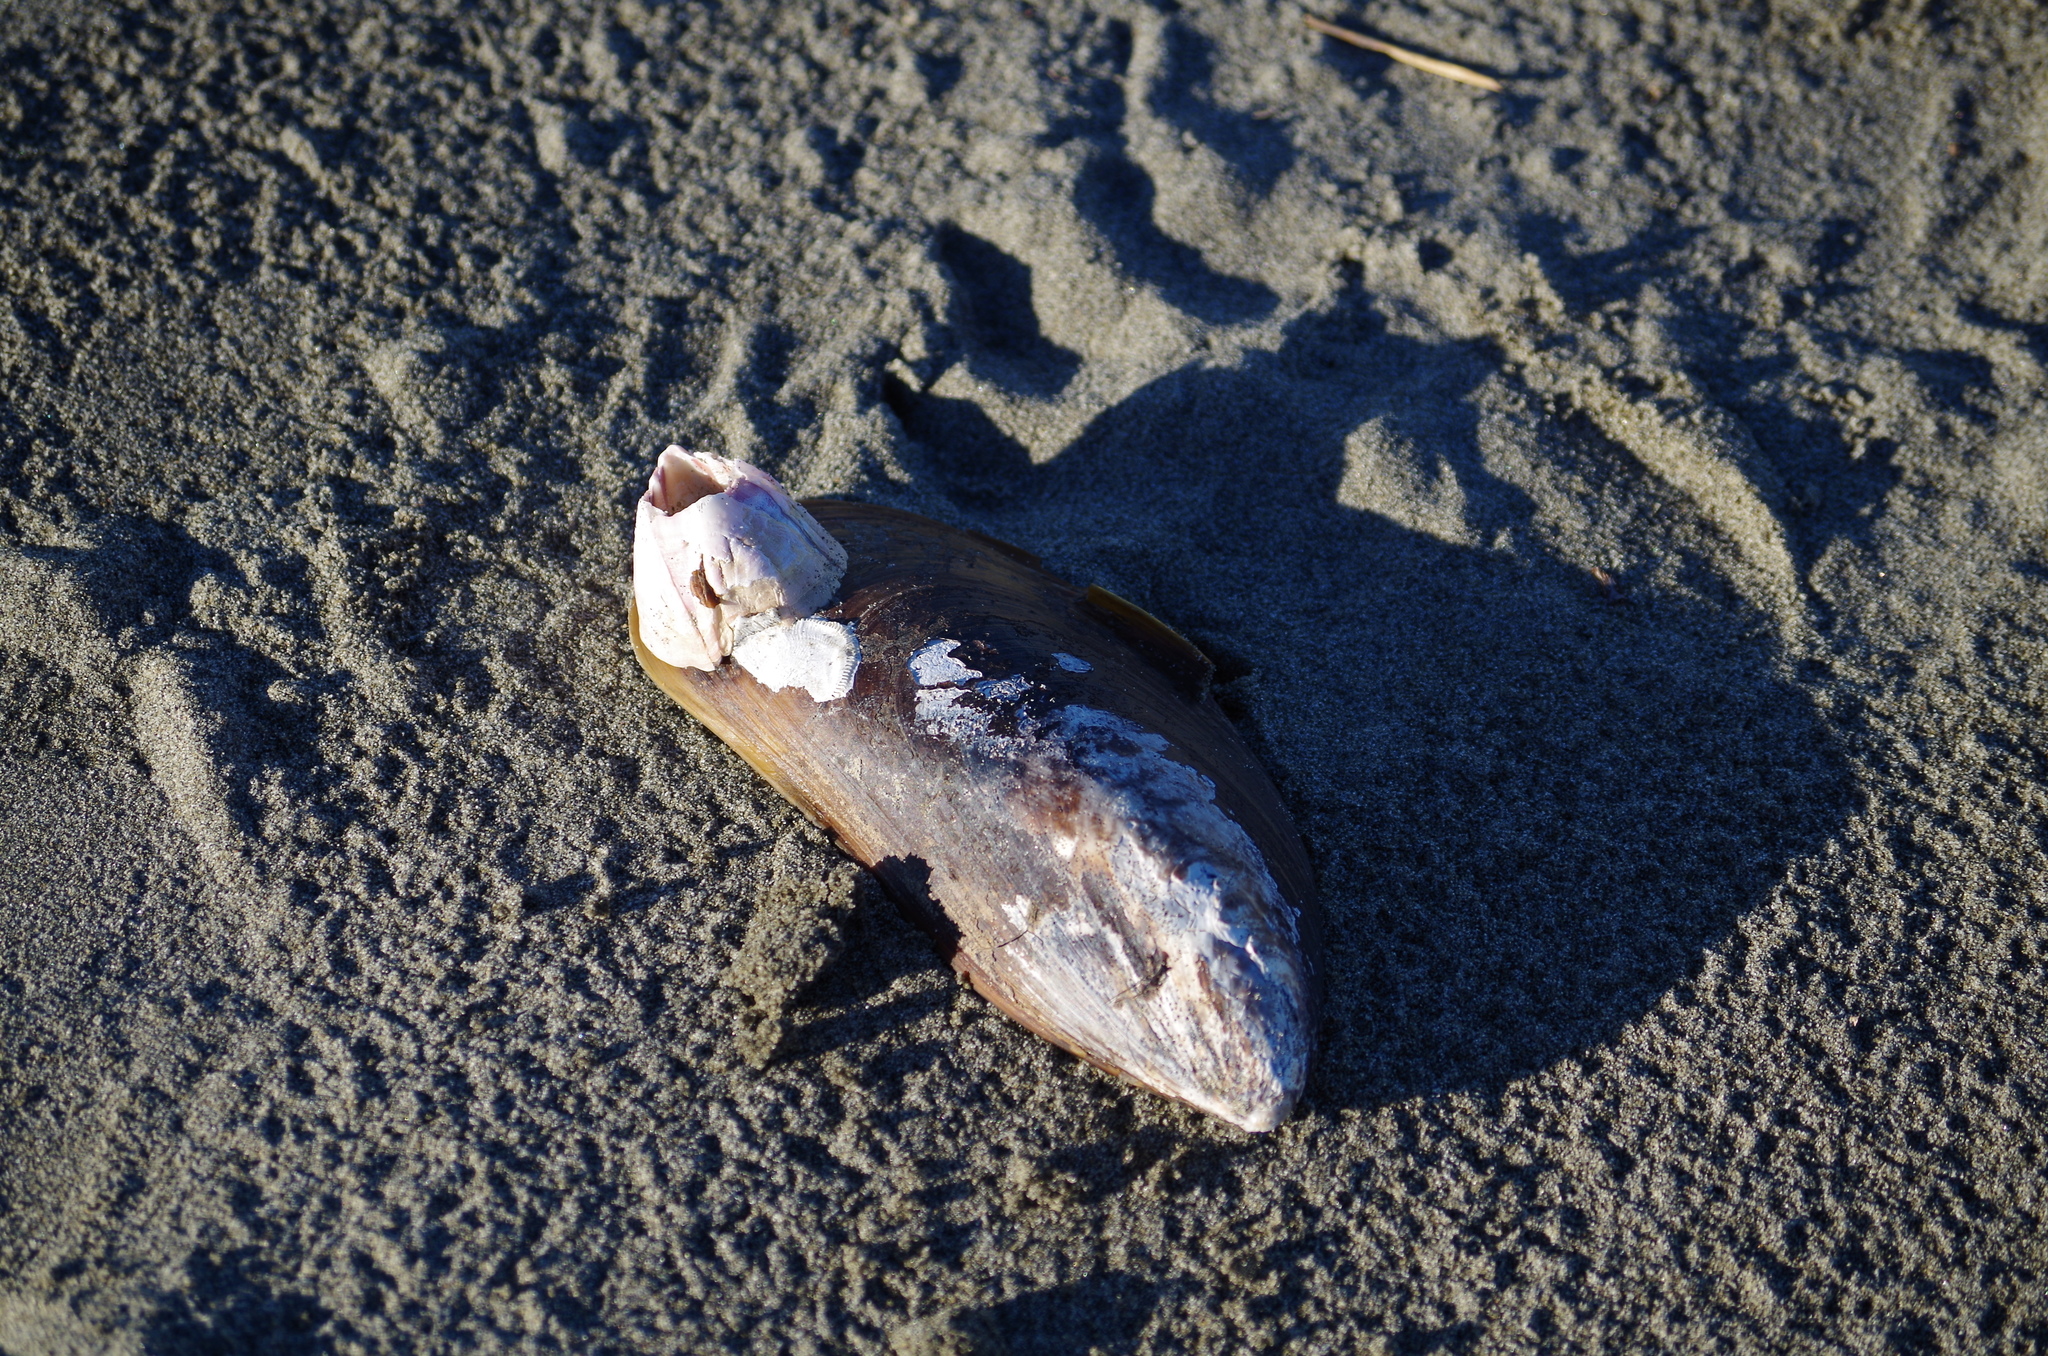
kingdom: Animalia
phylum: Mollusca
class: Bivalvia
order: Mytilida
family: Mytilidae
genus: Perna
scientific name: Perna canaliculus
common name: New zealand greenshelltm
